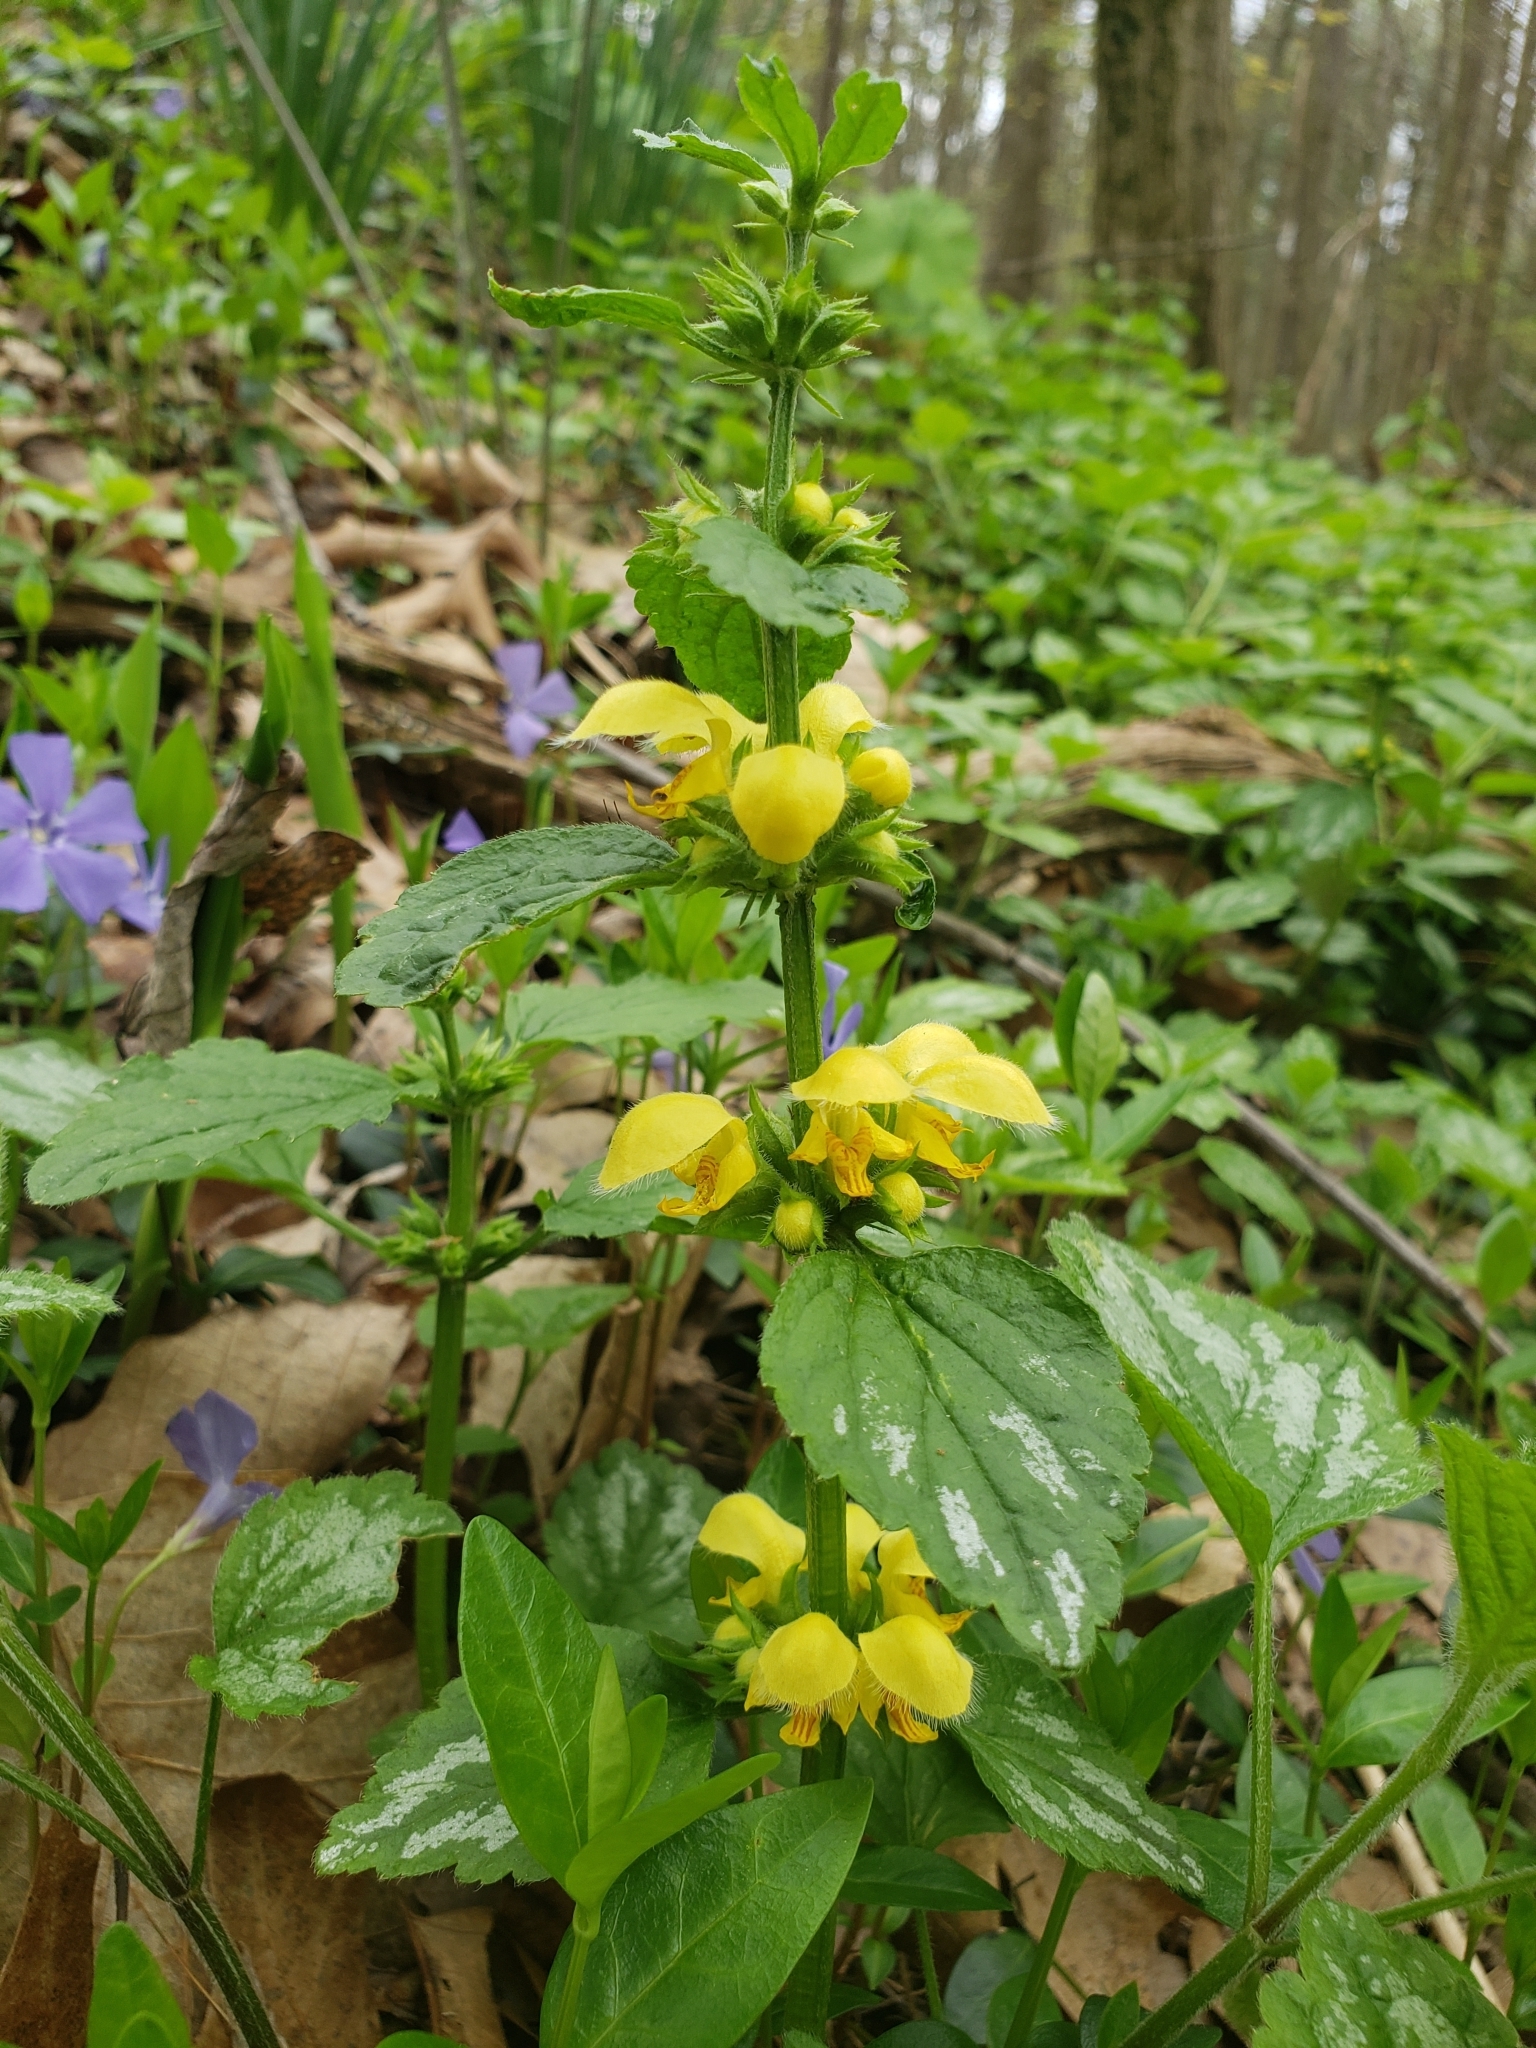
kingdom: Plantae
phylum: Tracheophyta
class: Magnoliopsida
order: Lamiales
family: Lamiaceae
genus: Lamium
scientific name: Lamium galeobdolon
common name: Yellow archangel
